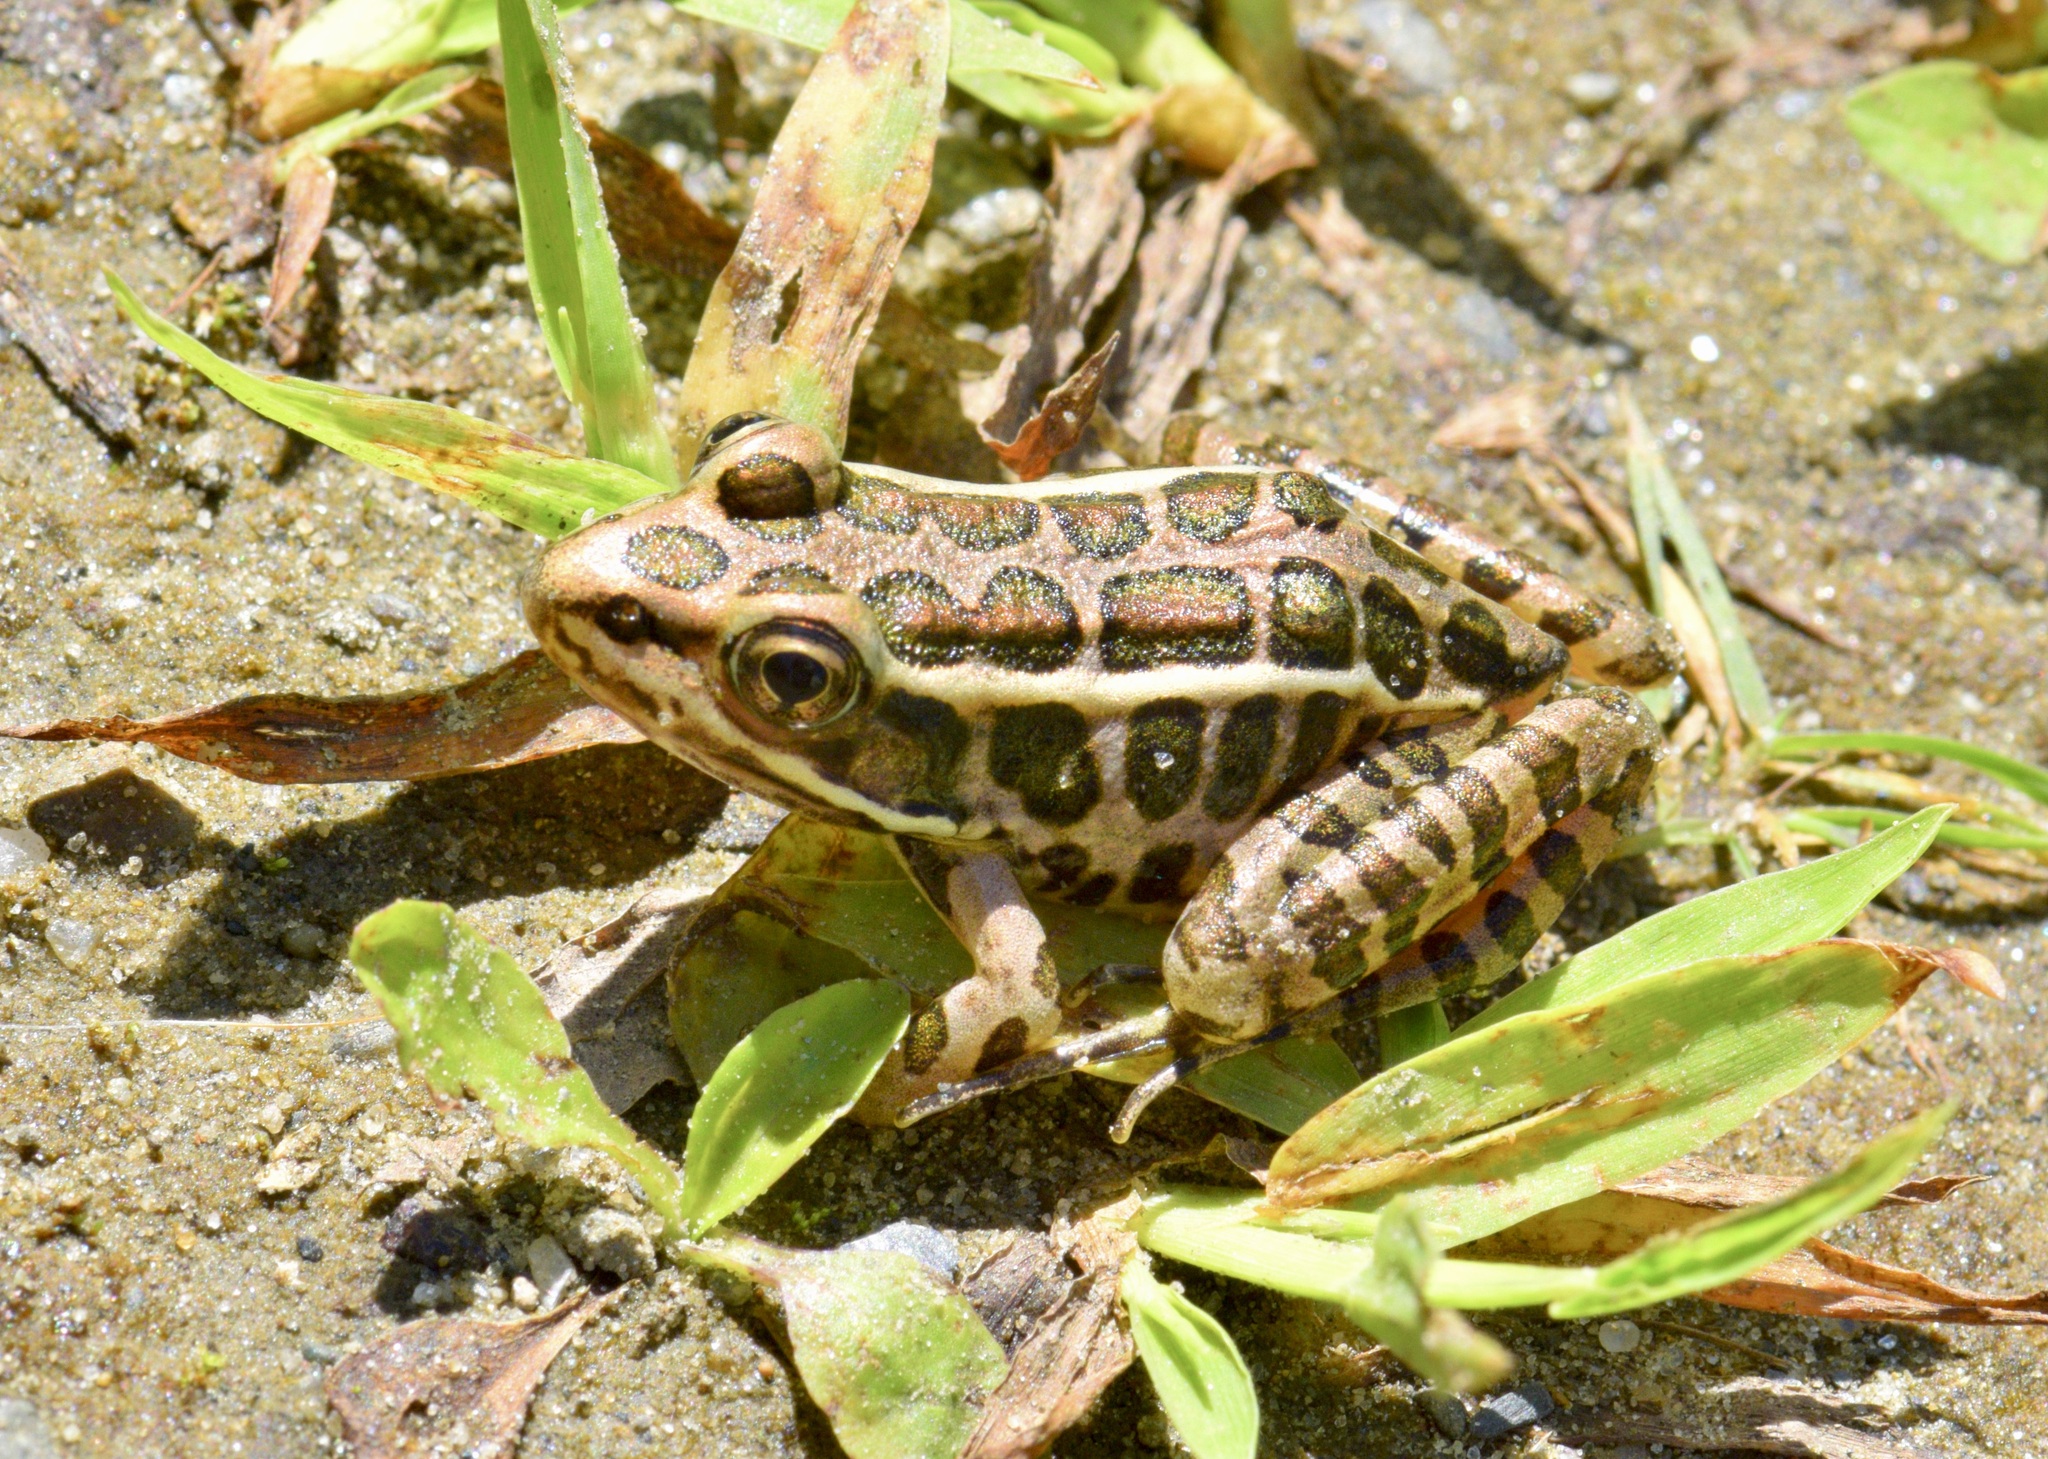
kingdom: Animalia
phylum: Chordata
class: Amphibia
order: Anura
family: Ranidae
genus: Lithobates
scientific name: Lithobates palustris
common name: Pickerel frog
